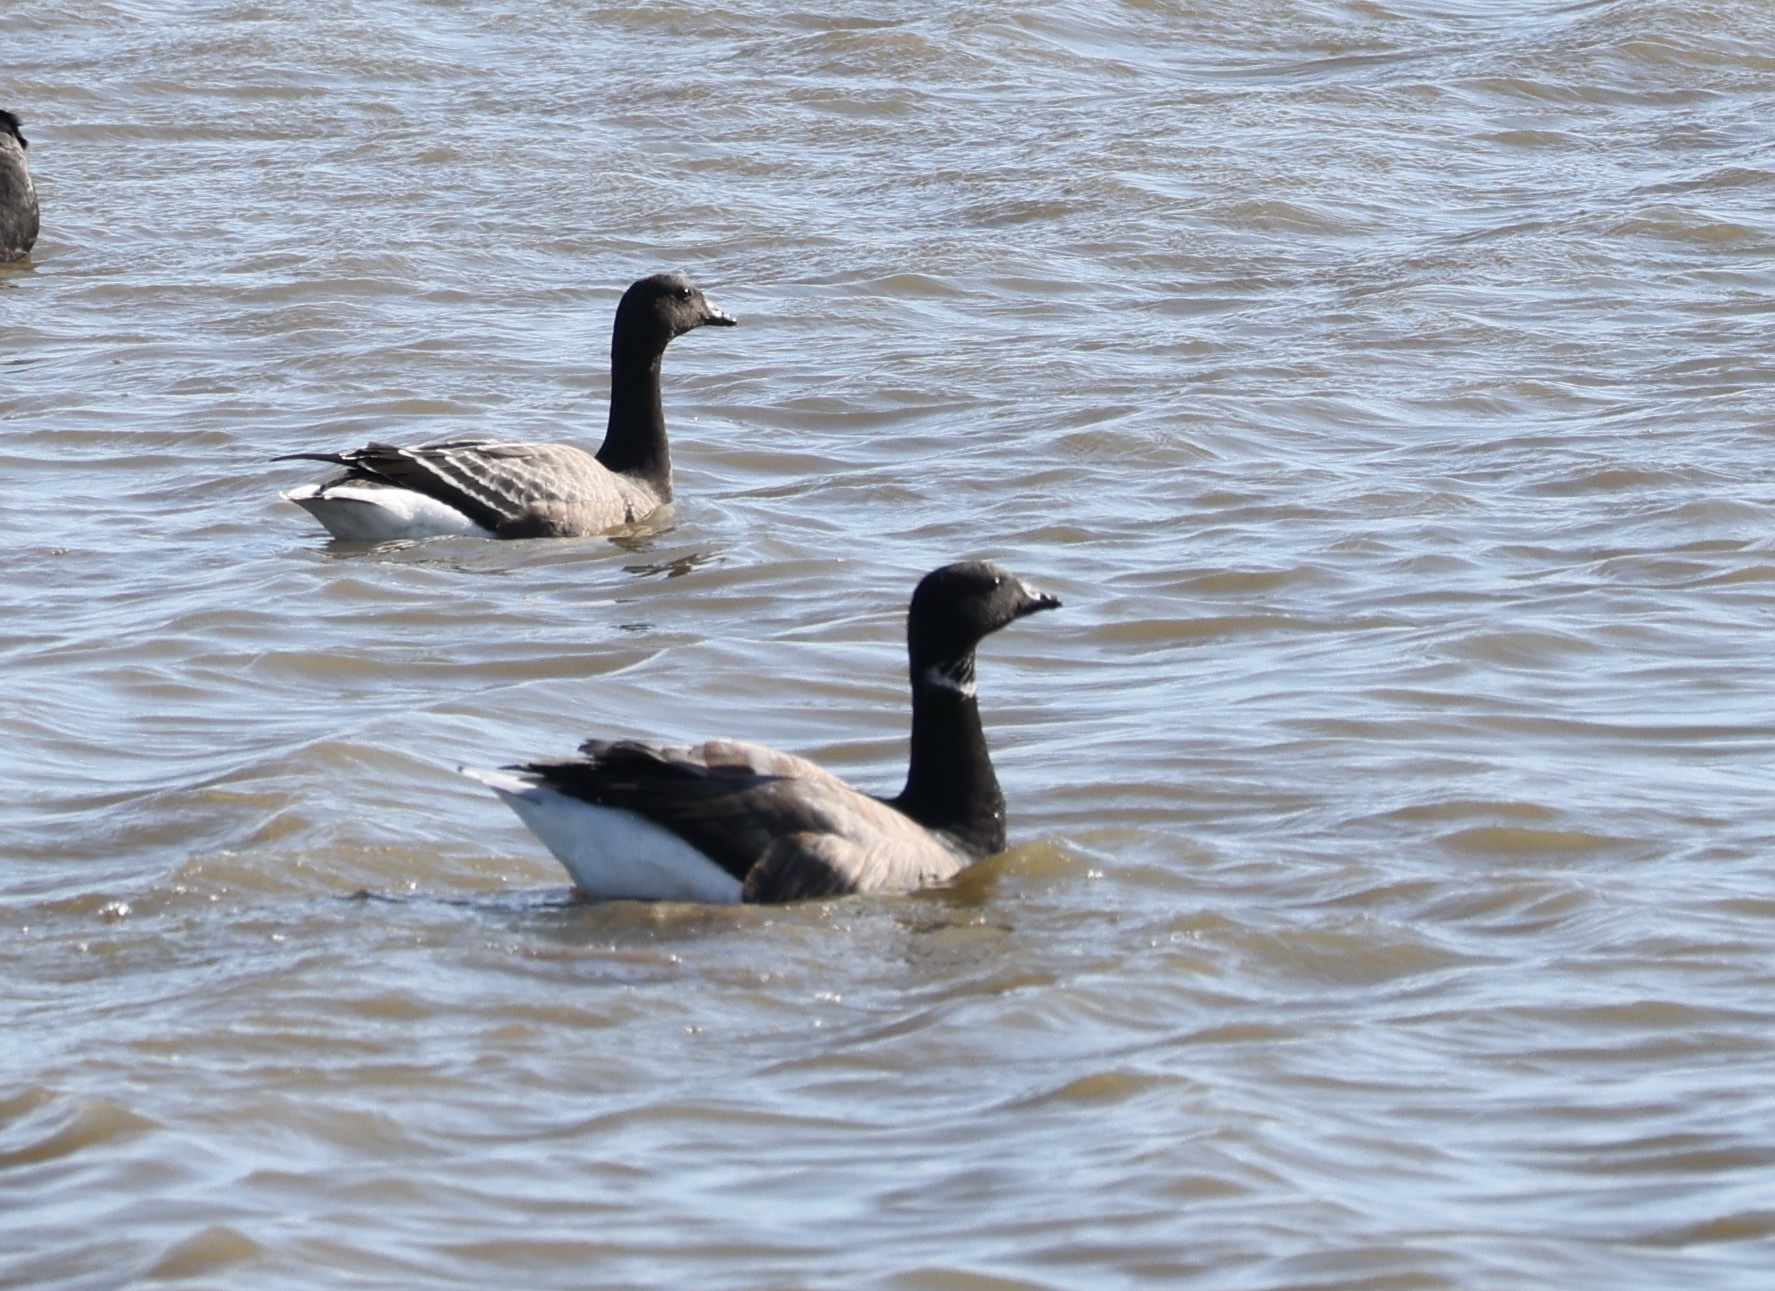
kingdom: Animalia
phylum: Chordata
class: Aves
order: Anseriformes
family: Anatidae
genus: Branta
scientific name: Branta bernicla
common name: Brant goose
